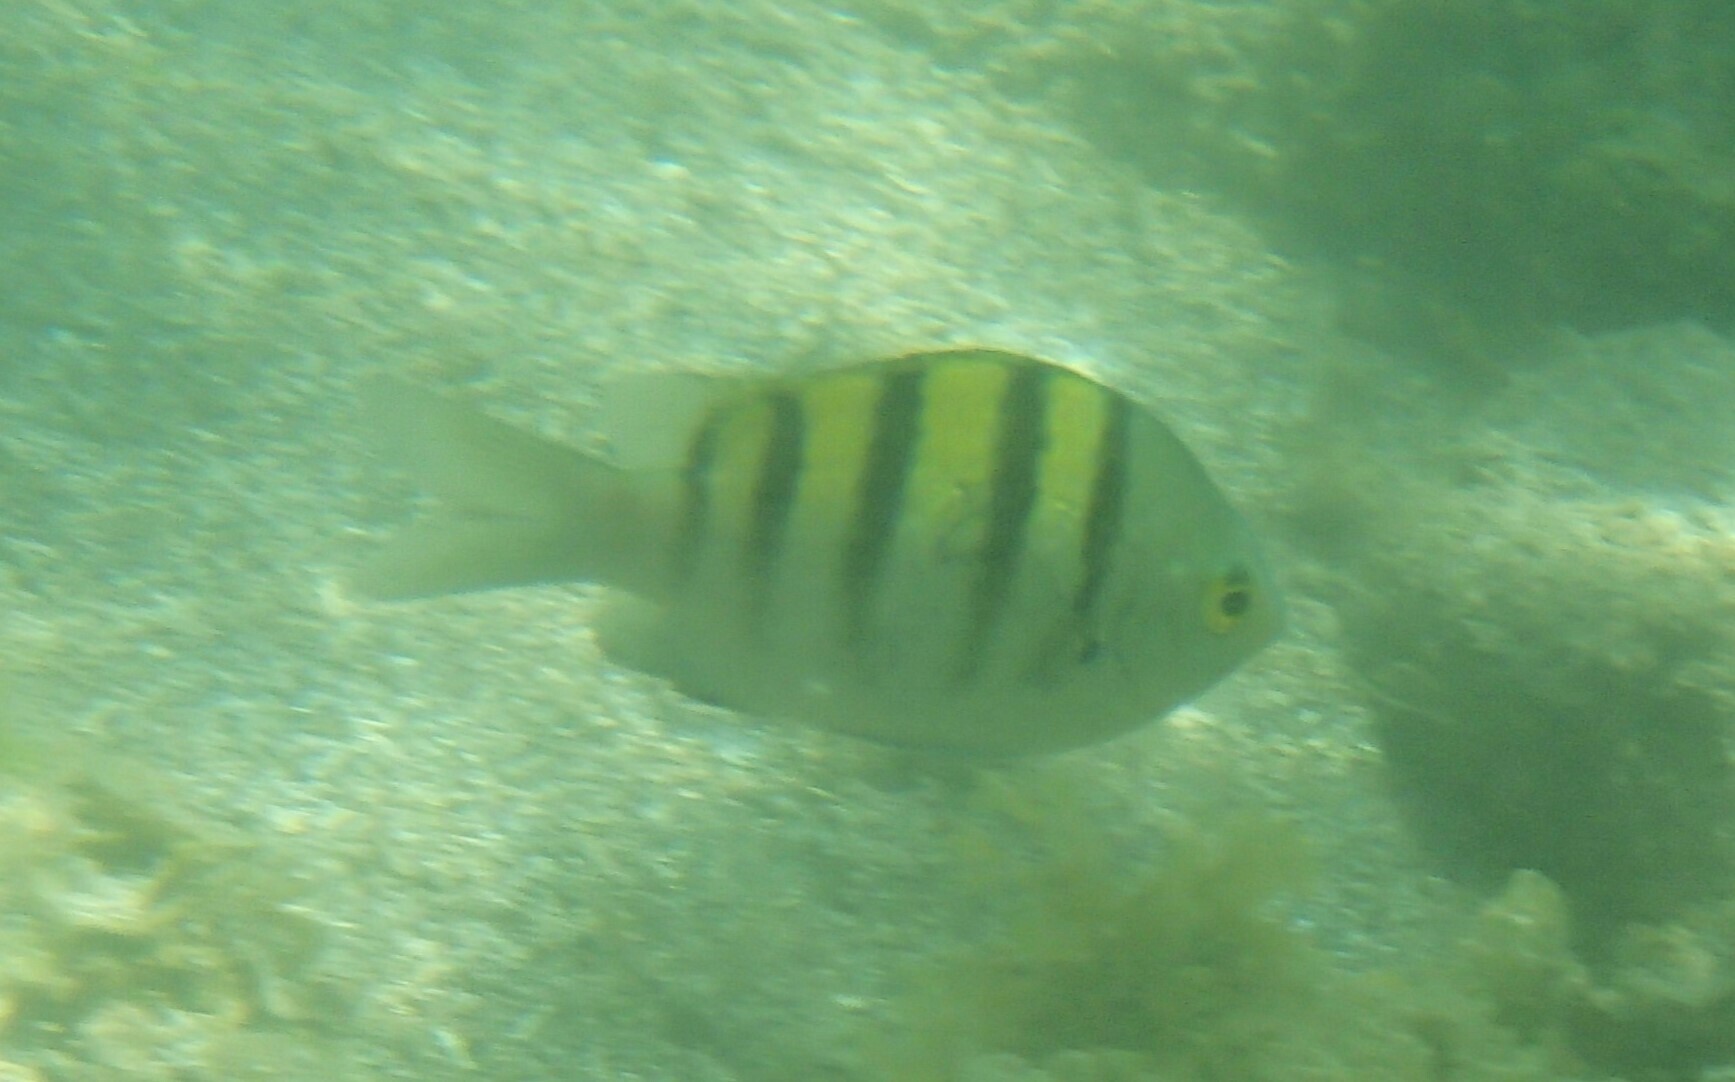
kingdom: Animalia
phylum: Chordata
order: Perciformes
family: Pomacentridae
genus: Abudefduf
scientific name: Abudefduf troschelii
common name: Panamic sergeant major
